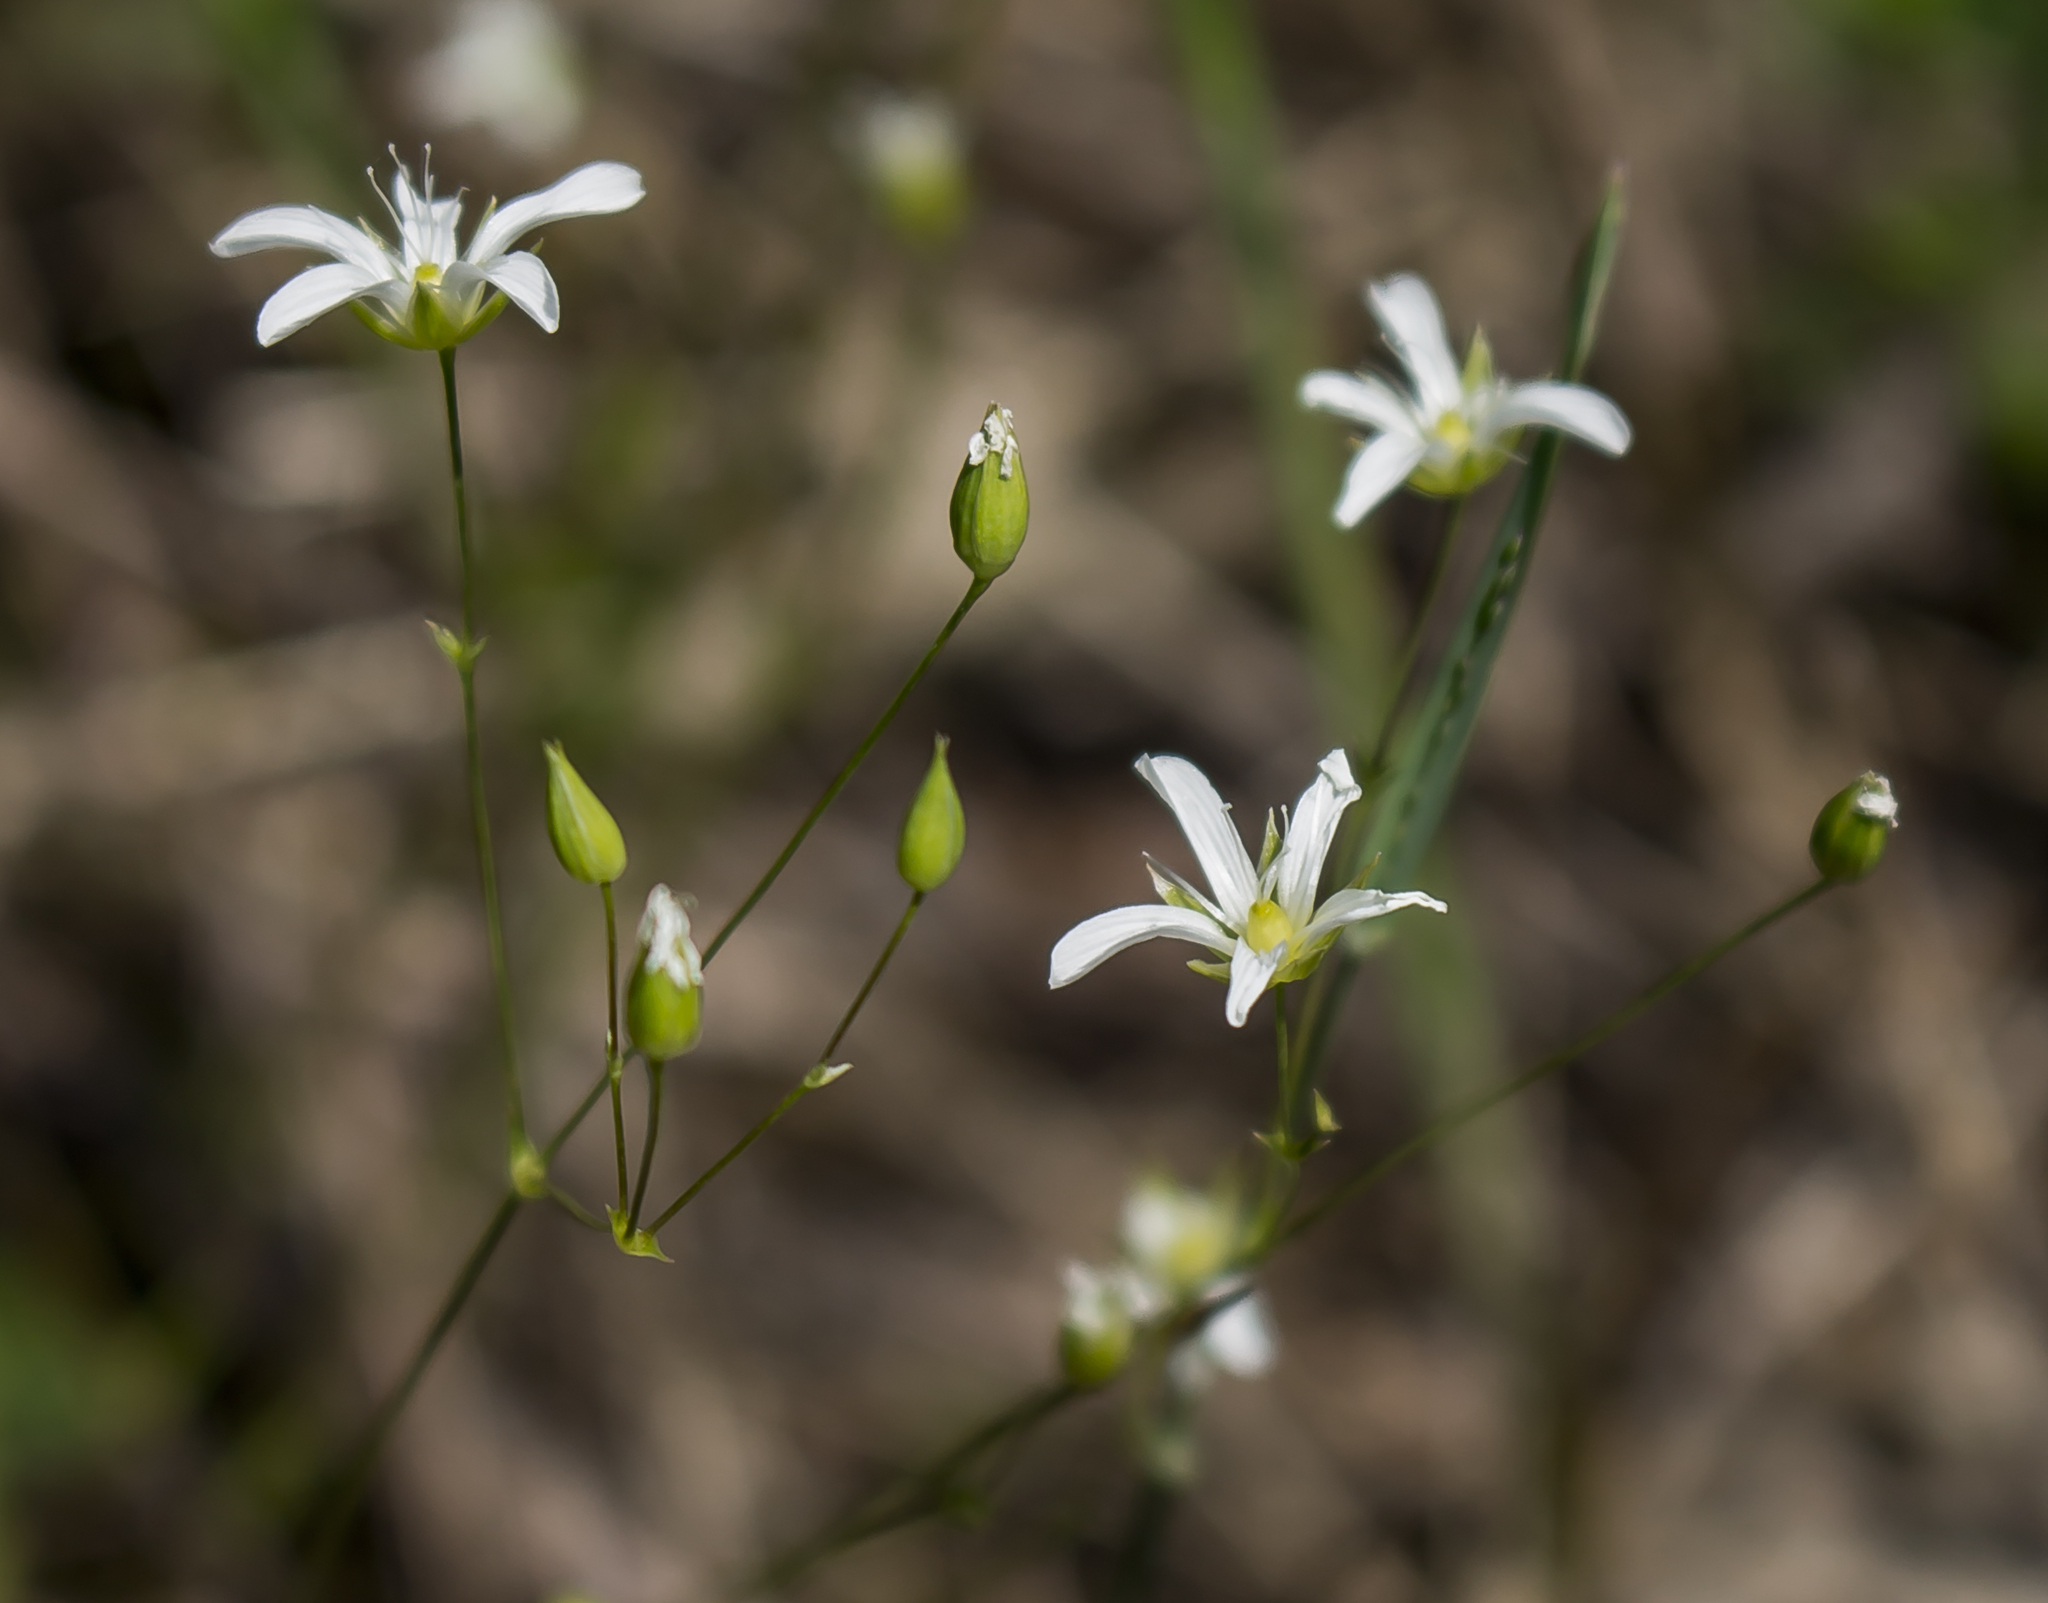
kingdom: Plantae
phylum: Tracheophyta
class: Magnoliopsida
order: Caryophyllales
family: Caryophyllaceae
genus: Sabulina
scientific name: Sabulina michauxii
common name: Michaux's stitchwort
